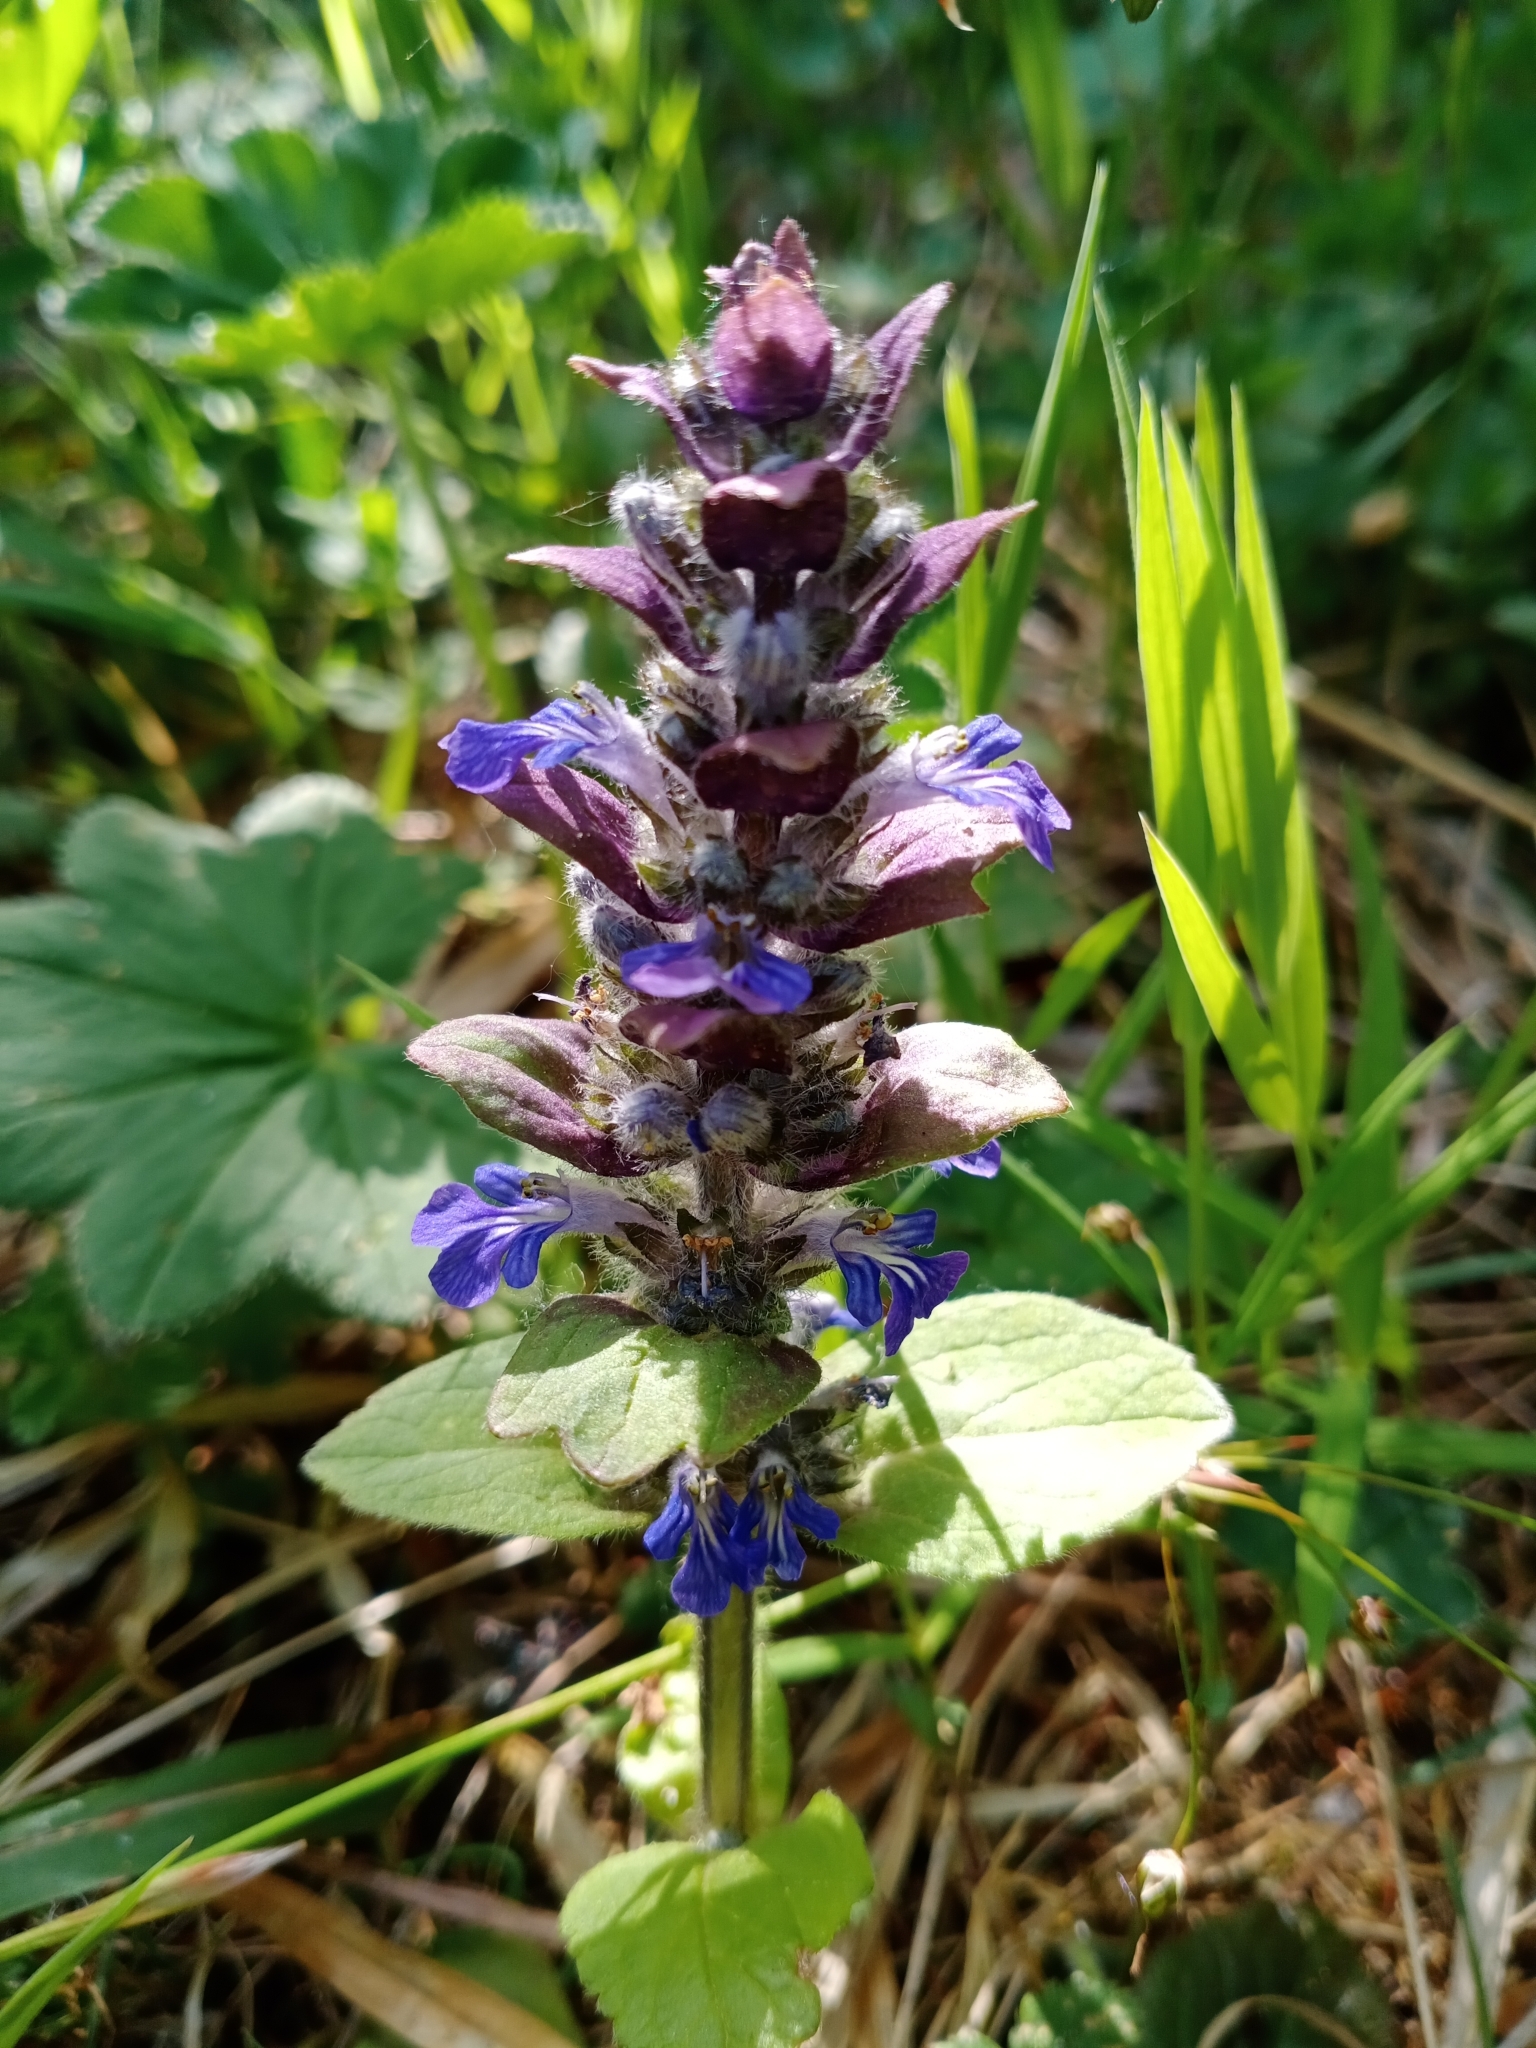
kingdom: Plantae
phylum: Tracheophyta
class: Magnoliopsida
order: Lamiales
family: Lamiaceae
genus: Ajuga
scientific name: Ajuga reptans
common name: Bugle
